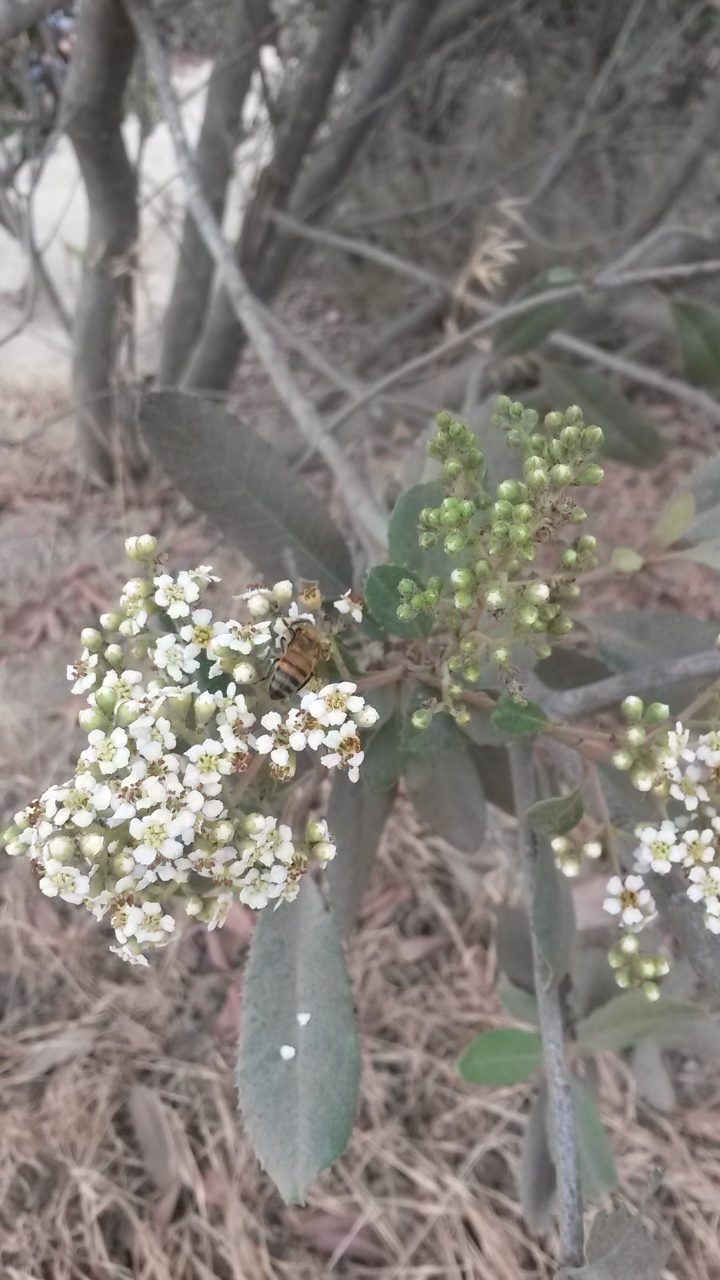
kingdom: Animalia
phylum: Arthropoda
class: Insecta
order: Hymenoptera
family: Apidae
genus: Apis
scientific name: Apis mellifera
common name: Honey bee
